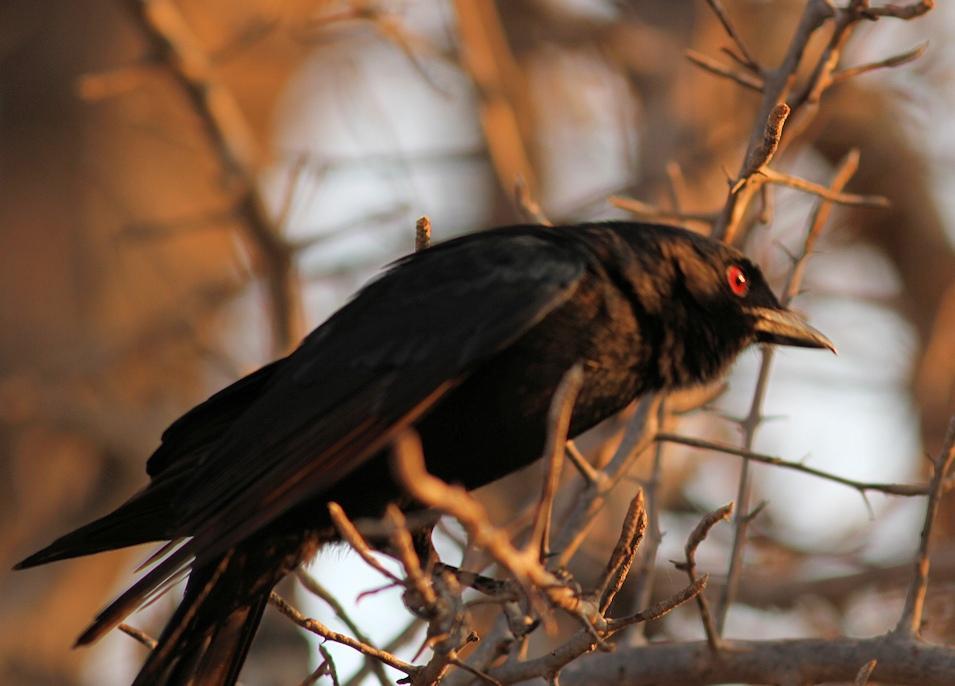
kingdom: Animalia
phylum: Chordata
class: Aves
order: Passeriformes
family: Dicruridae
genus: Dicrurus
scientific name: Dicrurus adsimilis
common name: Fork-tailed drongo
